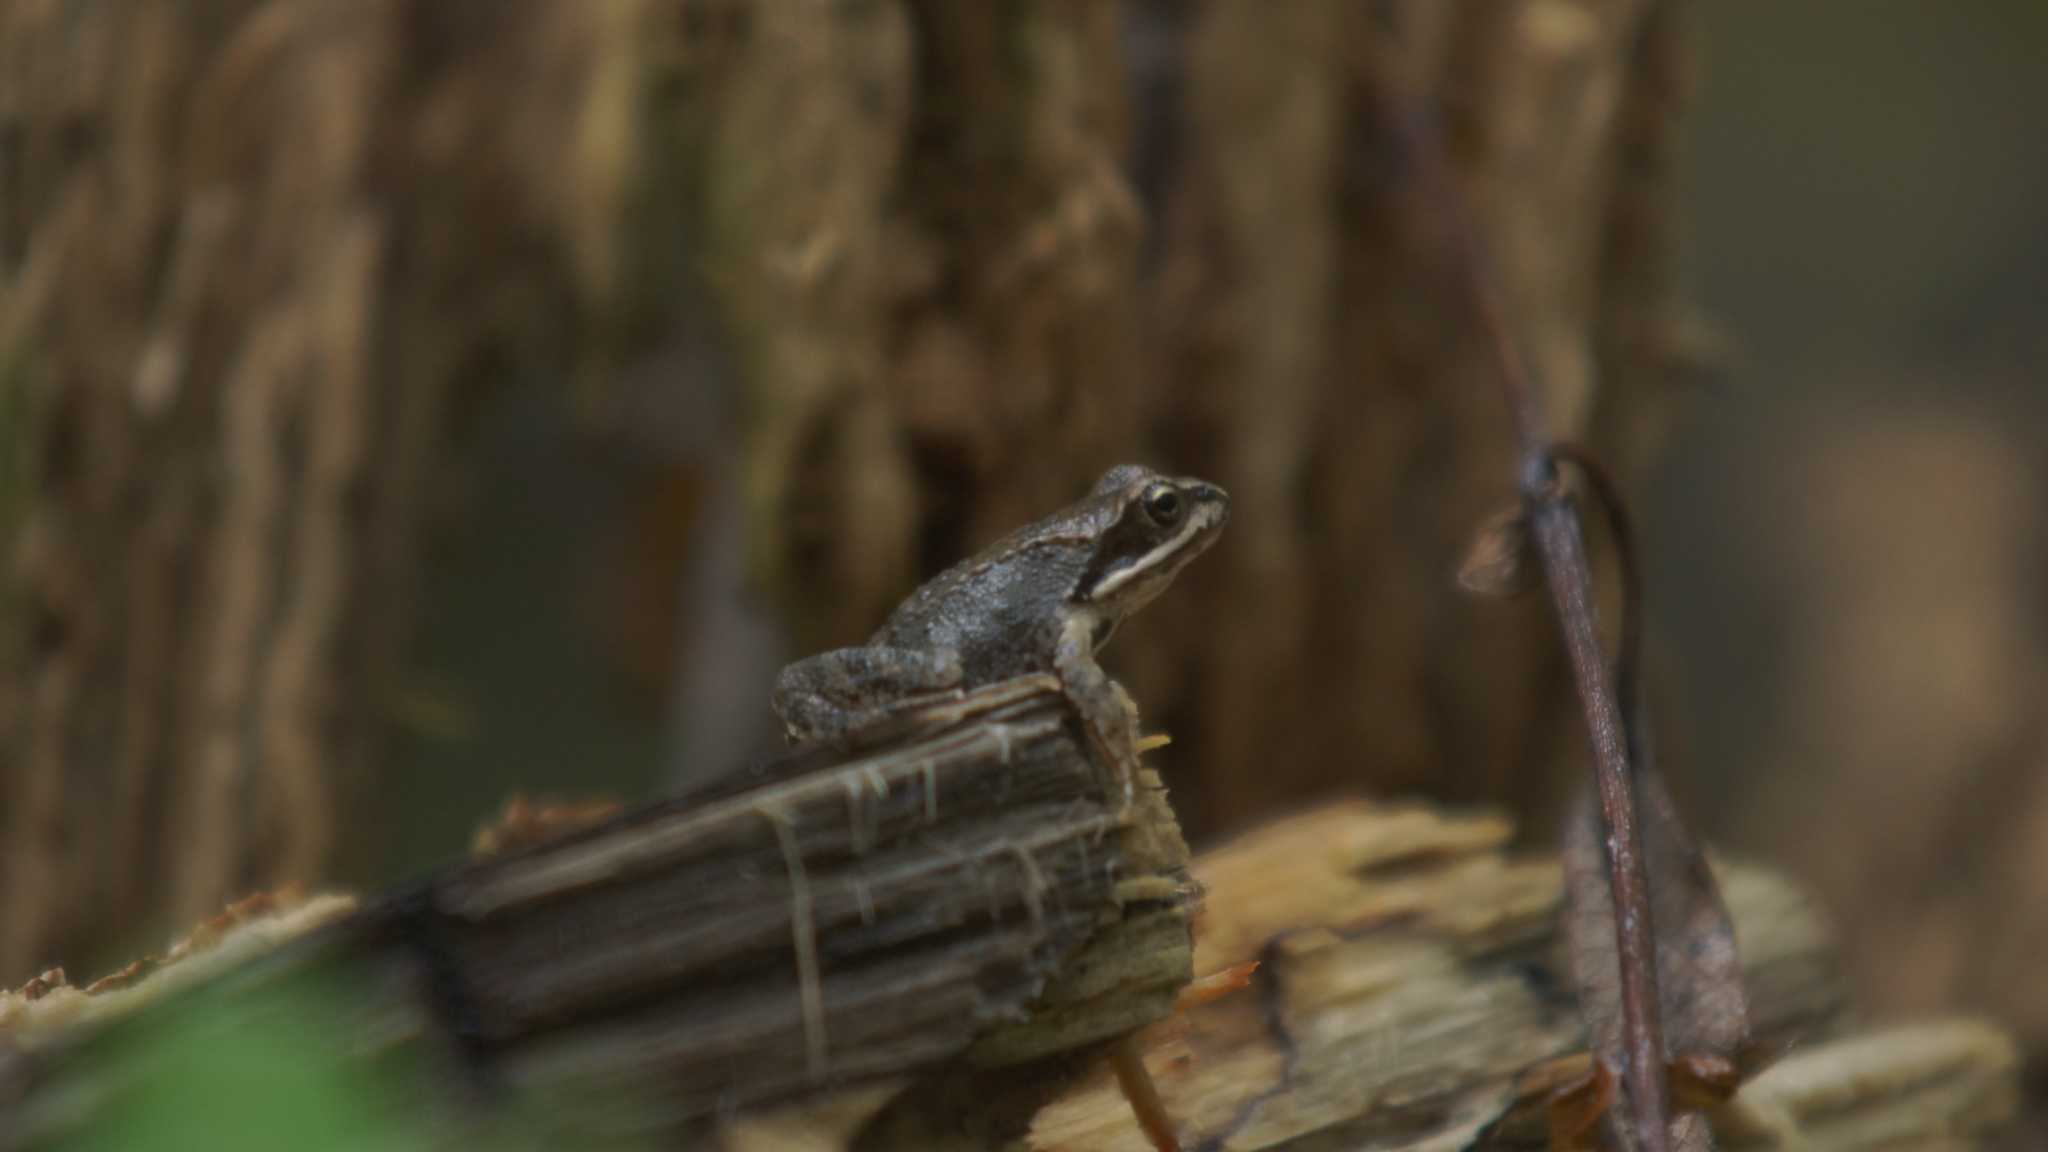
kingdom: Animalia
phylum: Chordata
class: Amphibia
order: Anura
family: Ranidae
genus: Rana
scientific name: Rana temporaria
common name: Common frog
